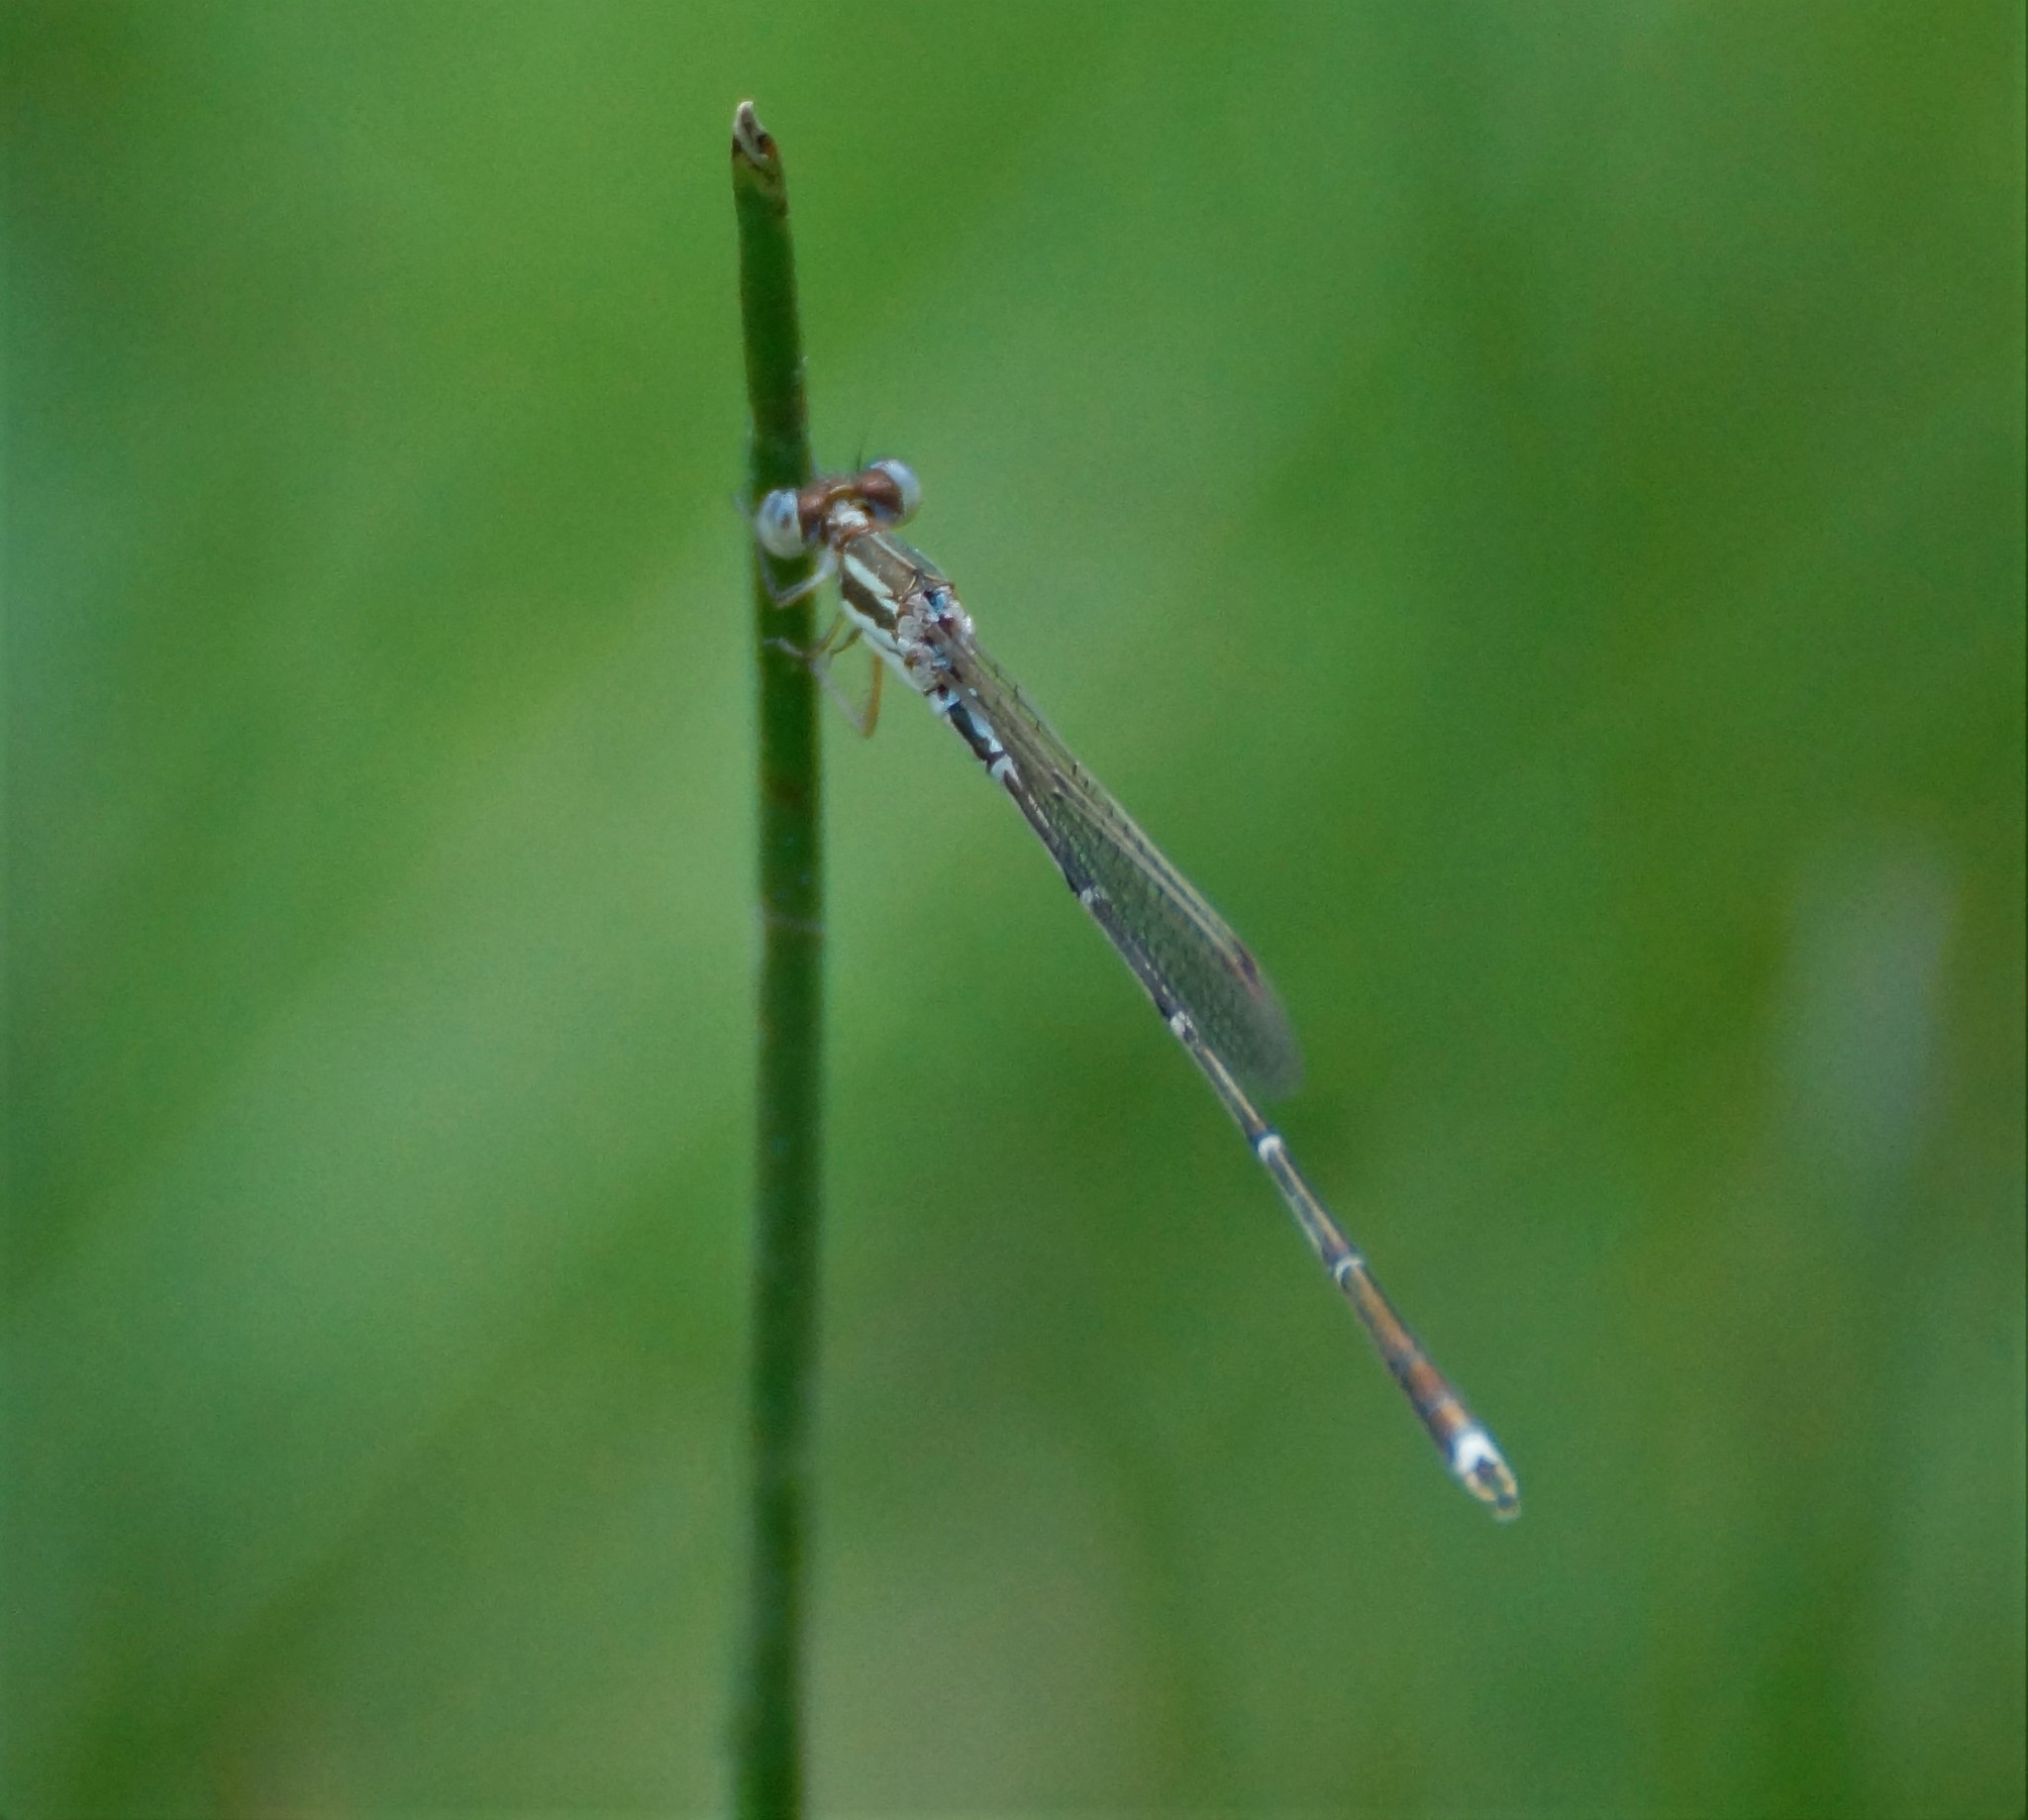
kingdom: Animalia
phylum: Arthropoda
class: Insecta
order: Odonata
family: Lestidae
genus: Austrolestes
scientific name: Austrolestes analis
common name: Slender ringtail
